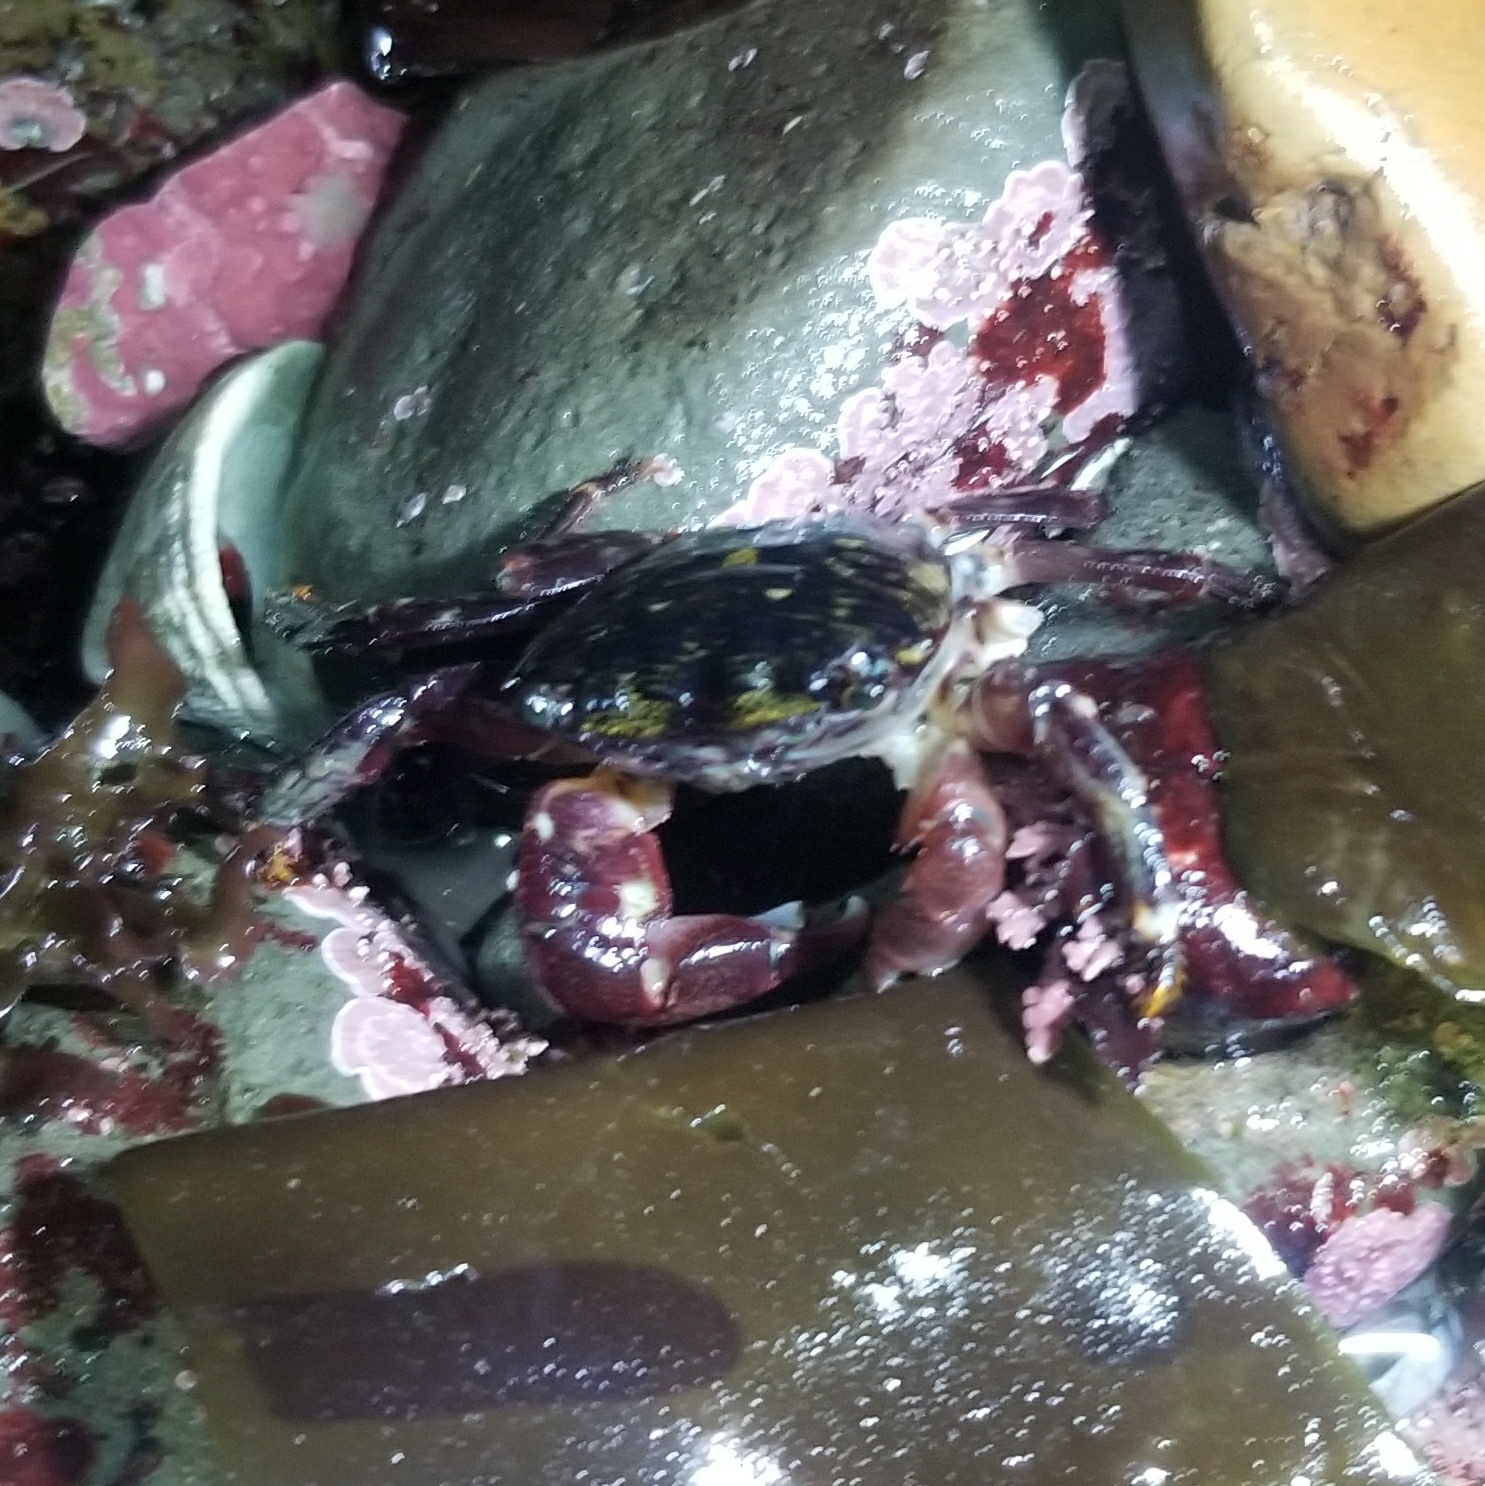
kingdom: Animalia
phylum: Arthropoda
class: Malacostraca
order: Decapoda
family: Grapsidae
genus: Pachygrapsus
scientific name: Pachygrapsus crassipes
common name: Striped shore crab
